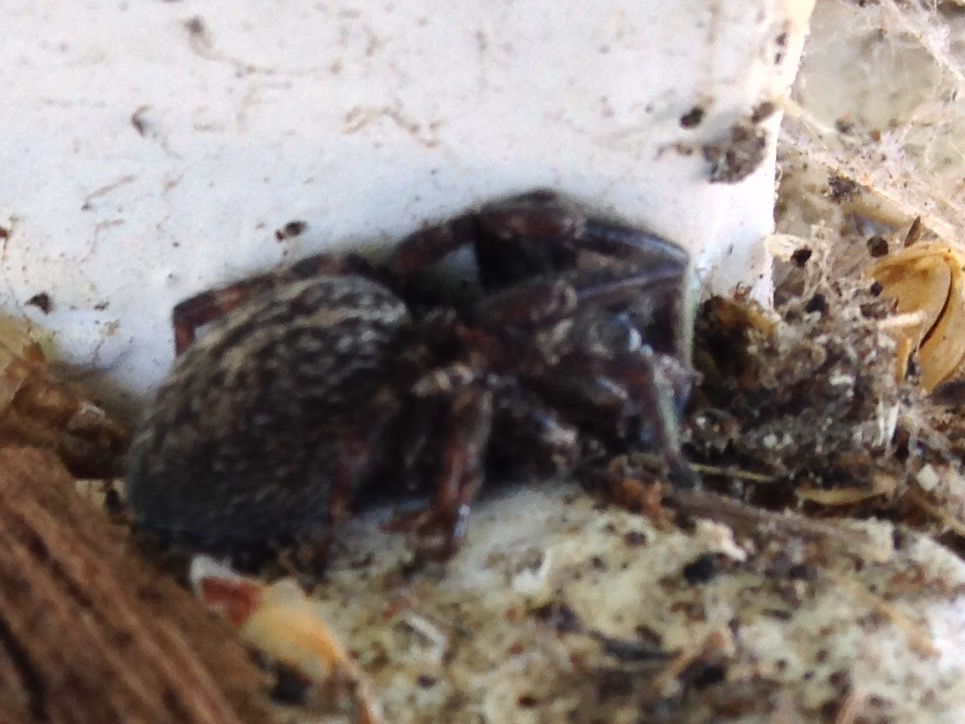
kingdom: Animalia
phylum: Arthropoda
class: Arachnida
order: Araneae
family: Desidae
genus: Badumna
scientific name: Badumna longinqua
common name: Gray house spider
